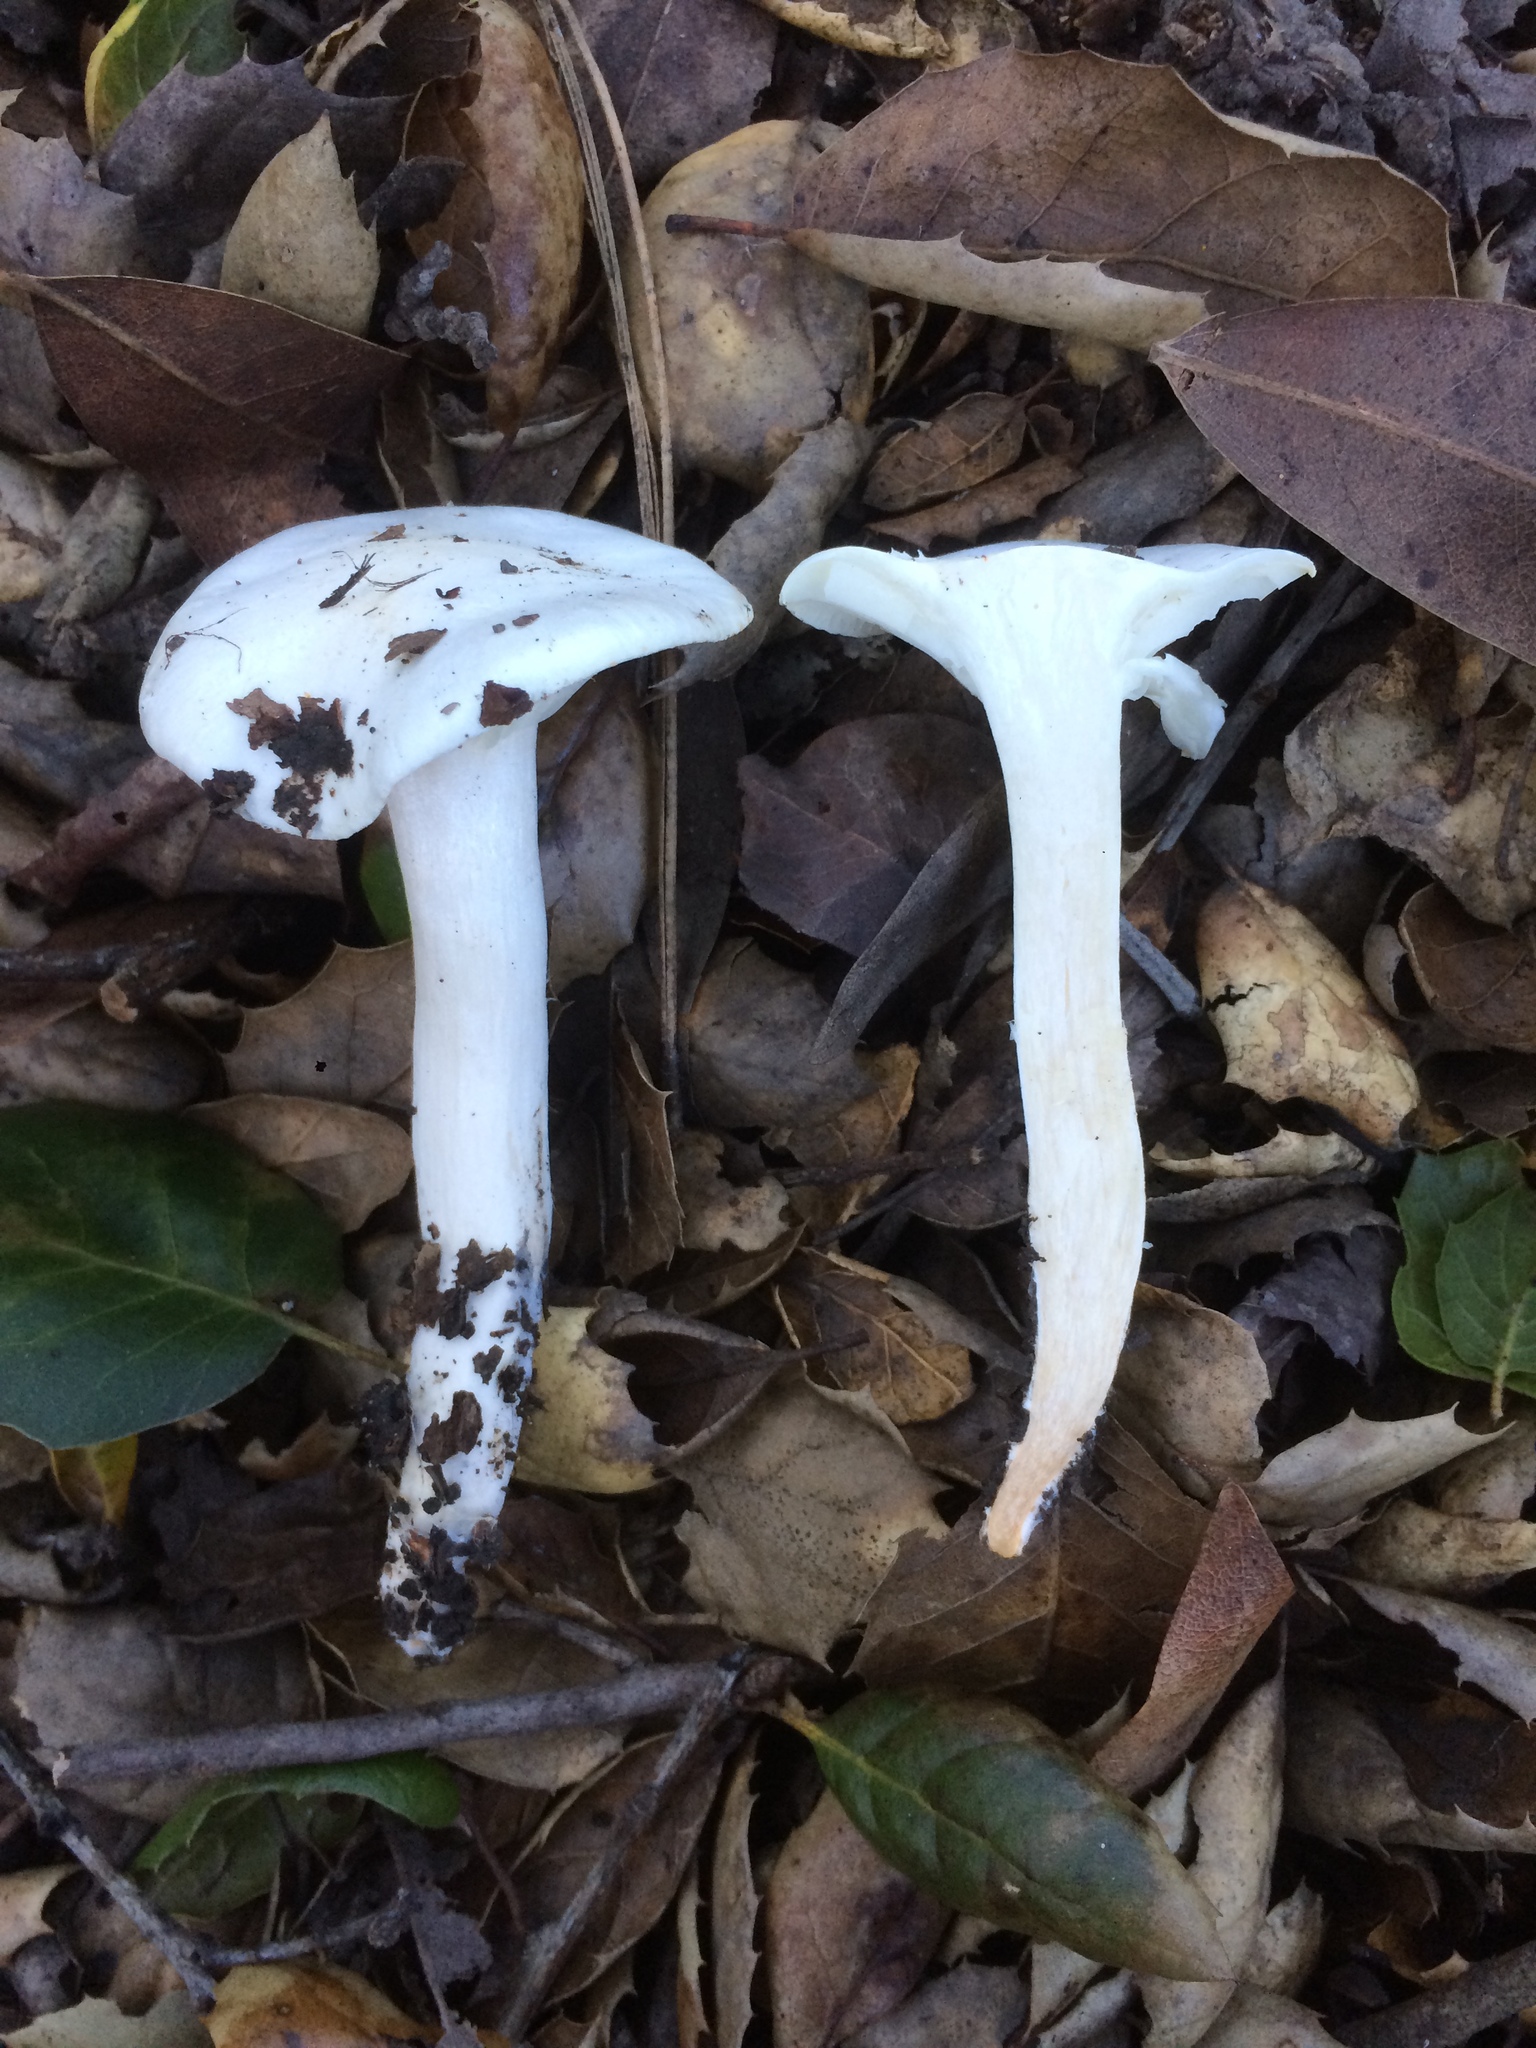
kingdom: Fungi
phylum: Basidiomycota
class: Agaricomycetes
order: Agaricales
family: Hygrophoraceae
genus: Hygrophorus
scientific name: Hygrophorus eburneus
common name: Ivory wax-cap
